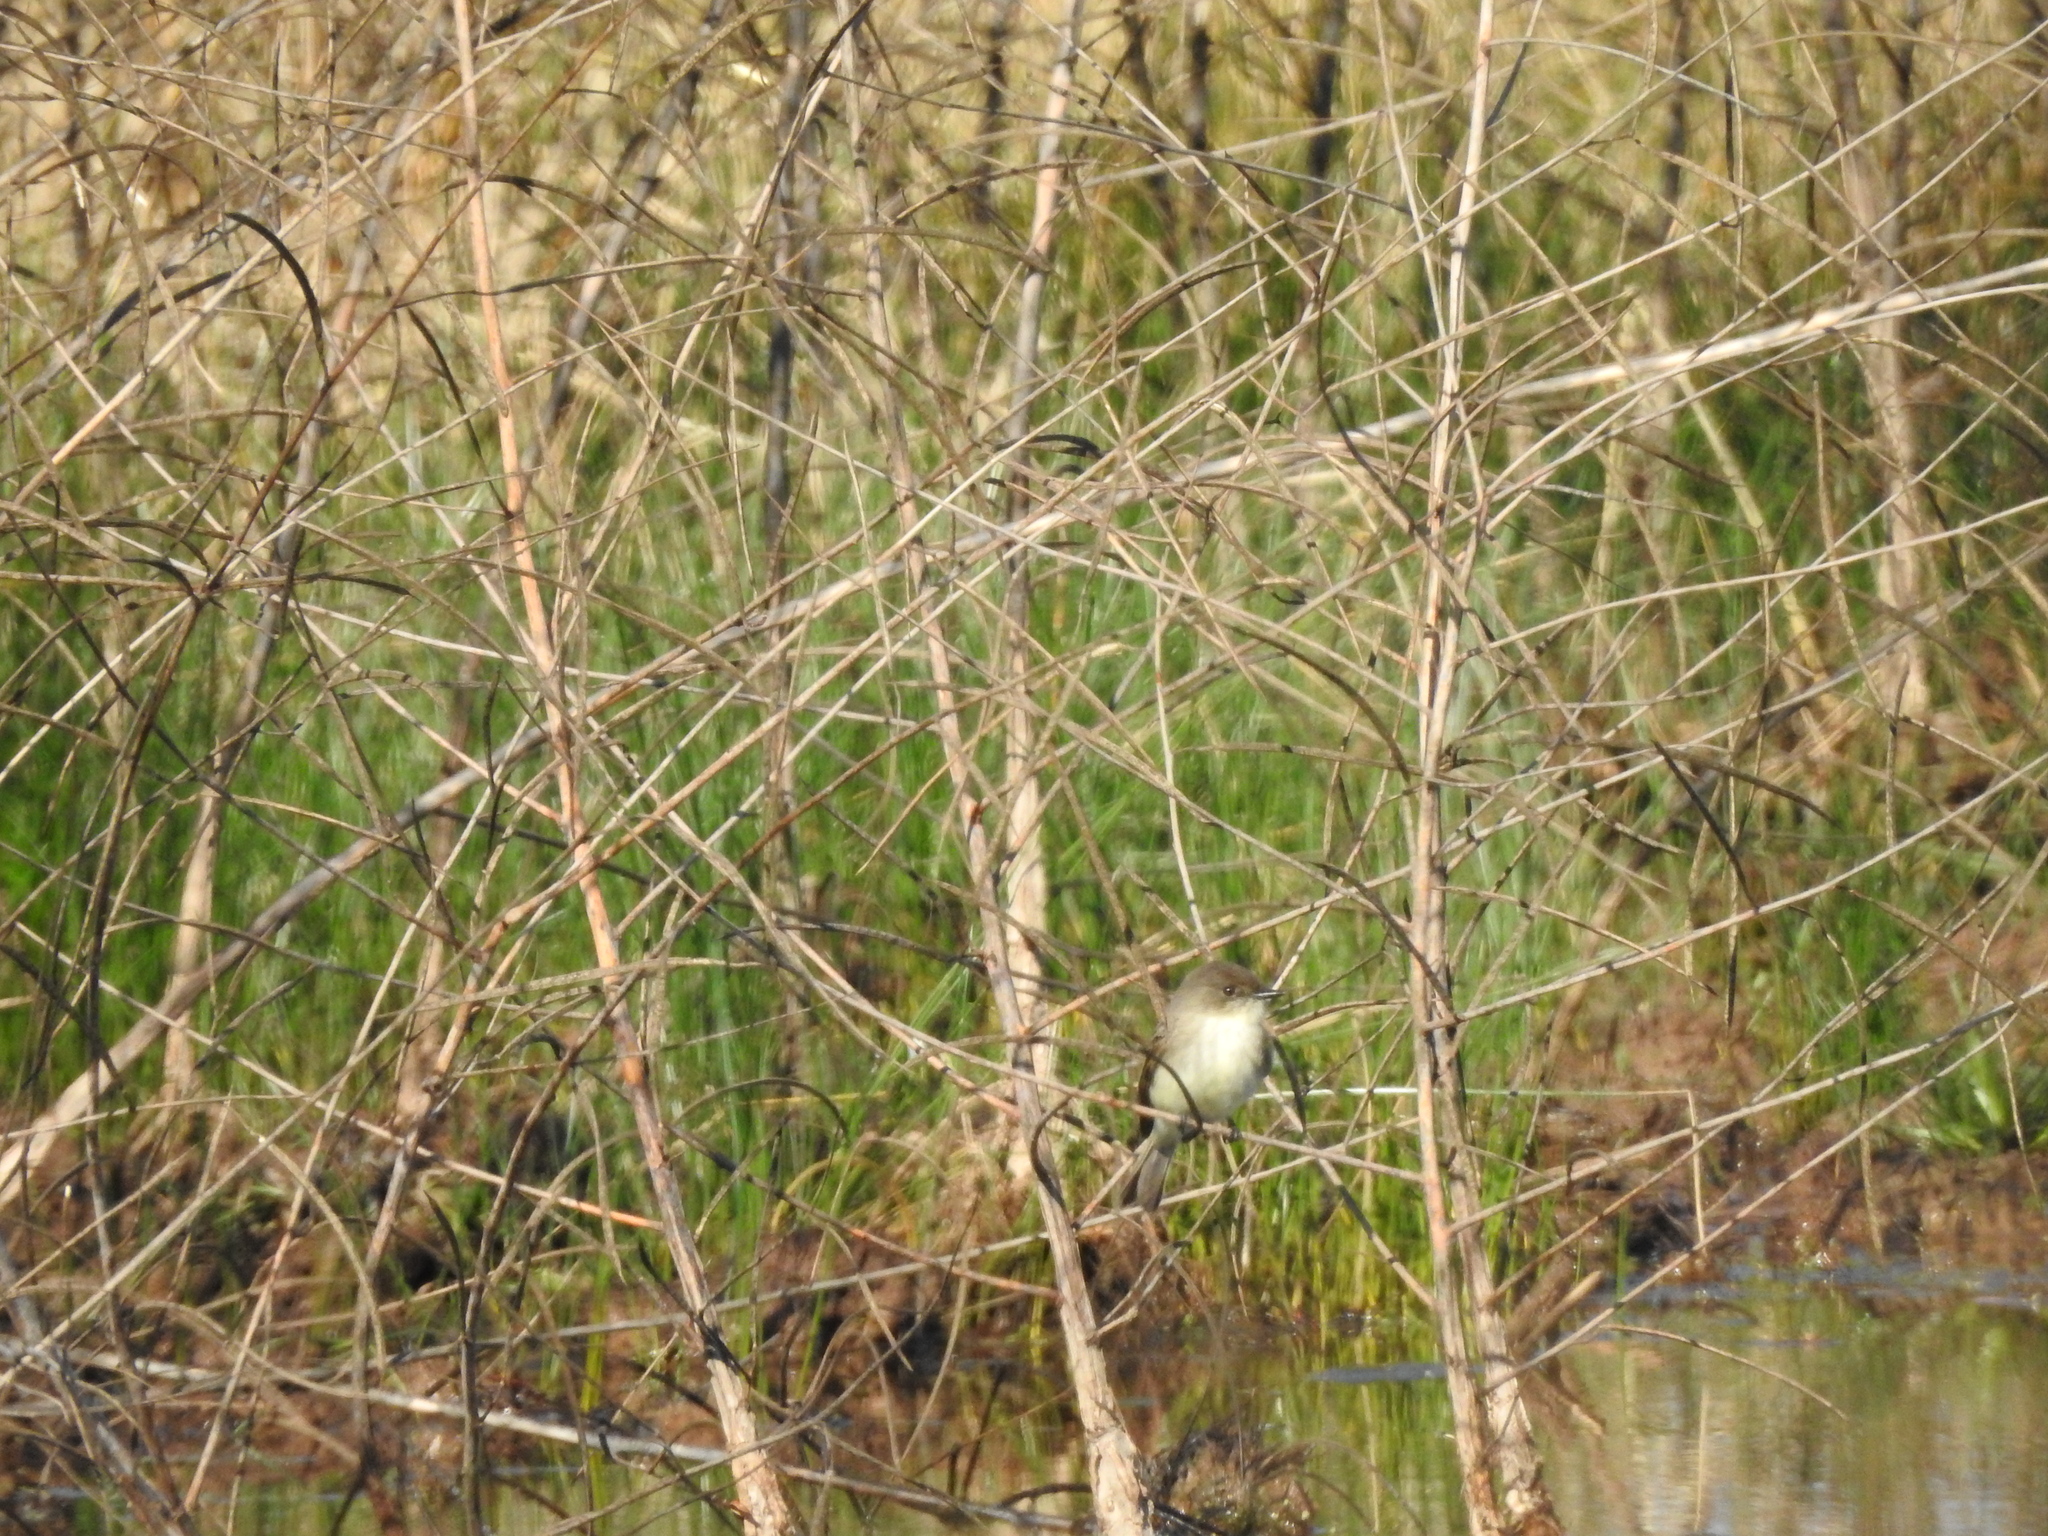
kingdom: Animalia
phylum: Chordata
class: Aves
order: Passeriformes
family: Tyrannidae
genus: Sayornis
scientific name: Sayornis phoebe
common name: Eastern phoebe
